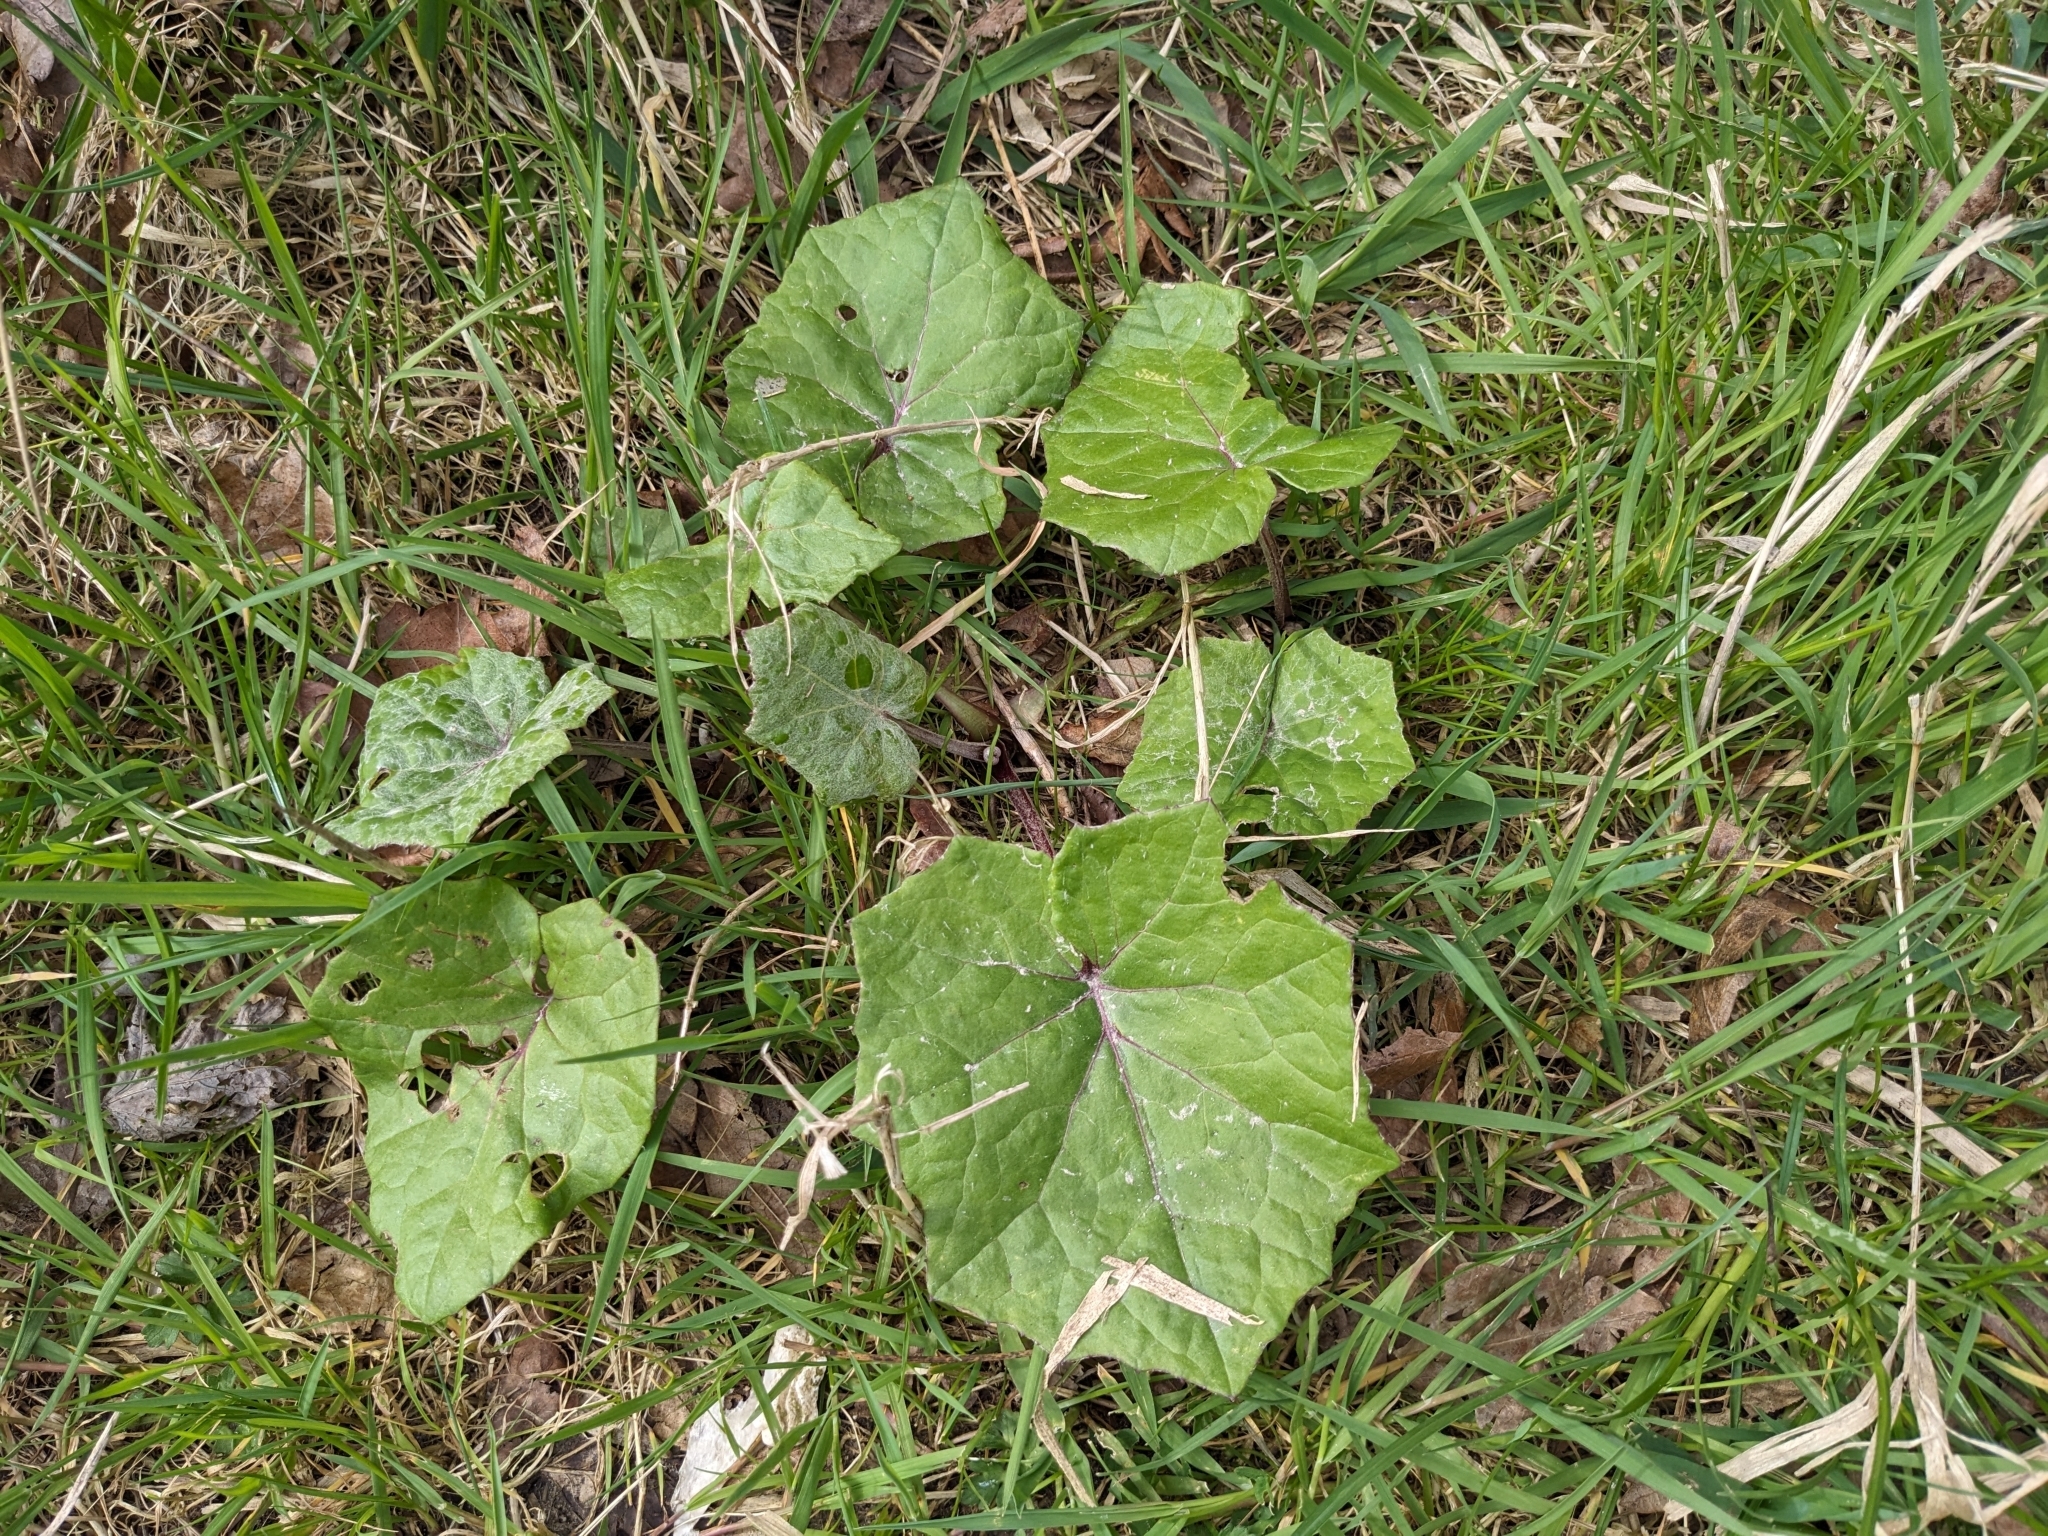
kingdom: Plantae
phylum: Tracheophyta
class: Magnoliopsida
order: Asterales
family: Asteraceae
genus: Tussilago
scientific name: Tussilago farfara
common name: Coltsfoot
